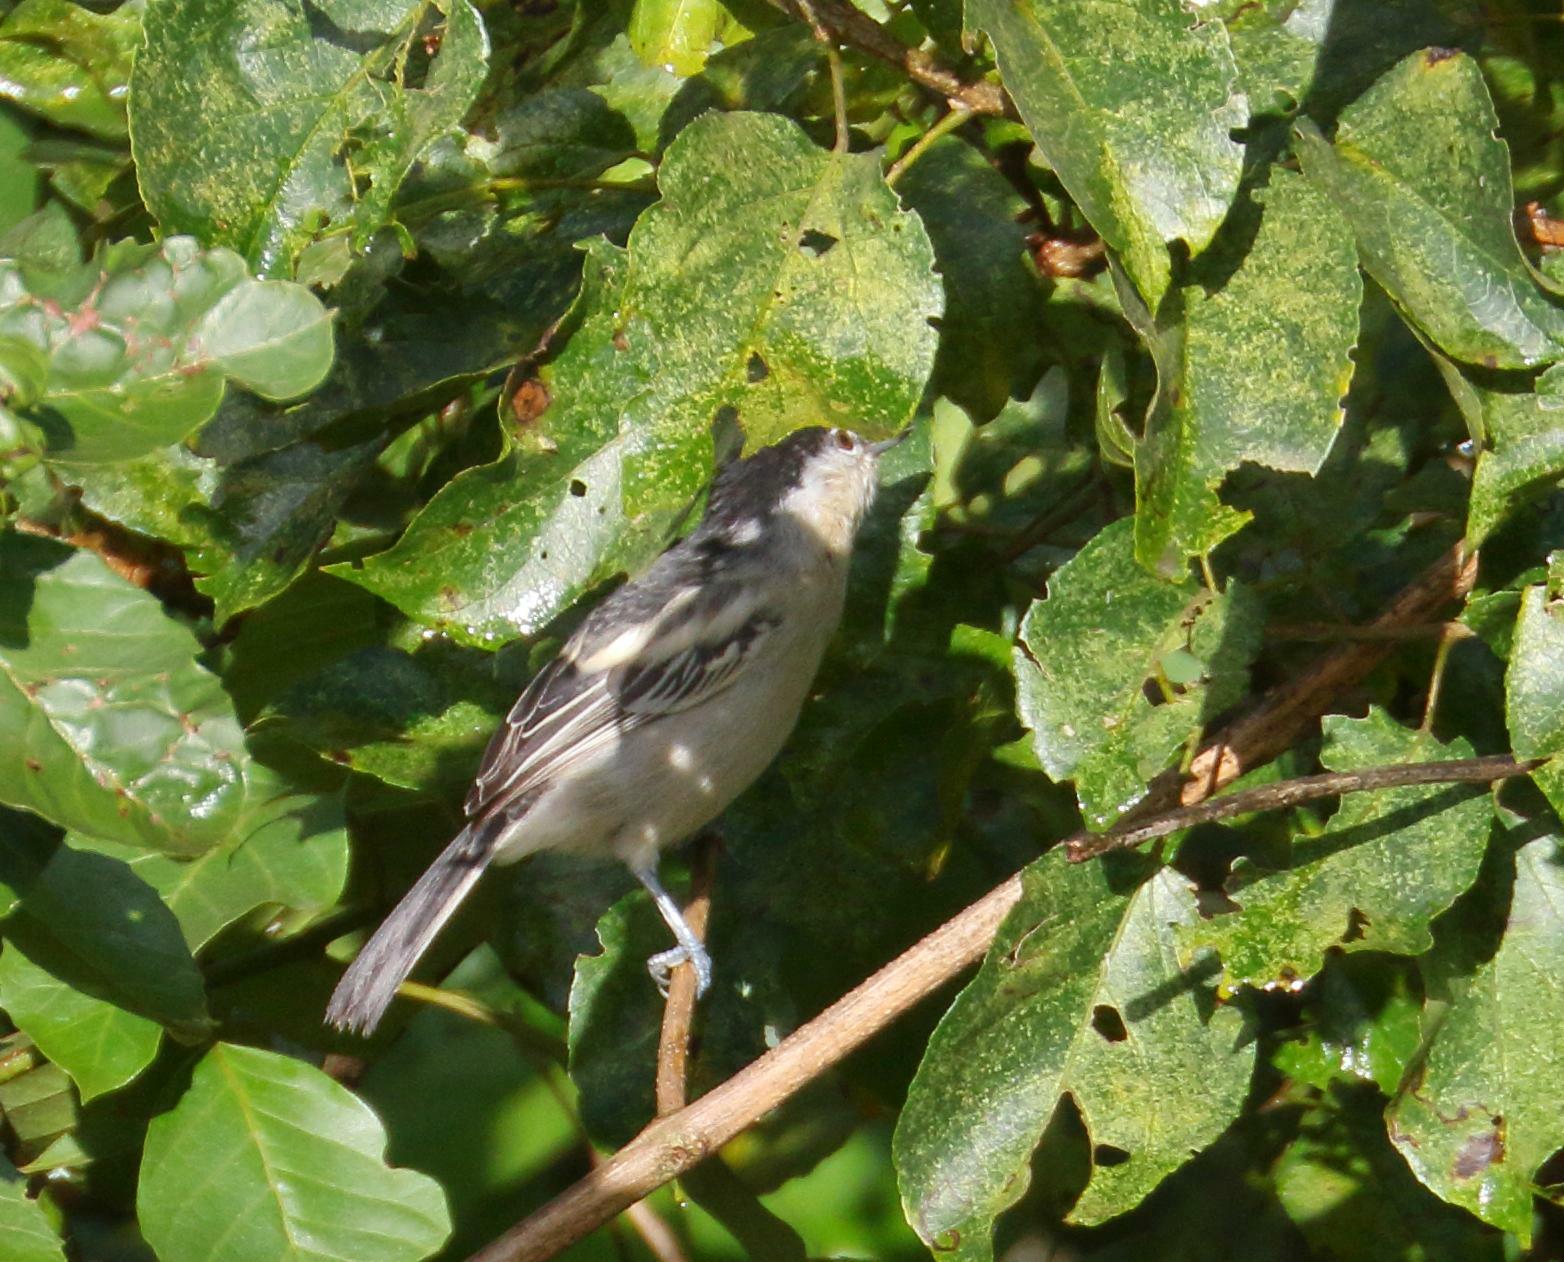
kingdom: Animalia
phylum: Chordata
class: Aves
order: Passeriformes
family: Malaconotidae
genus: Dryoscopus
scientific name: Dryoscopus cubla
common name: Black-backed puffback
